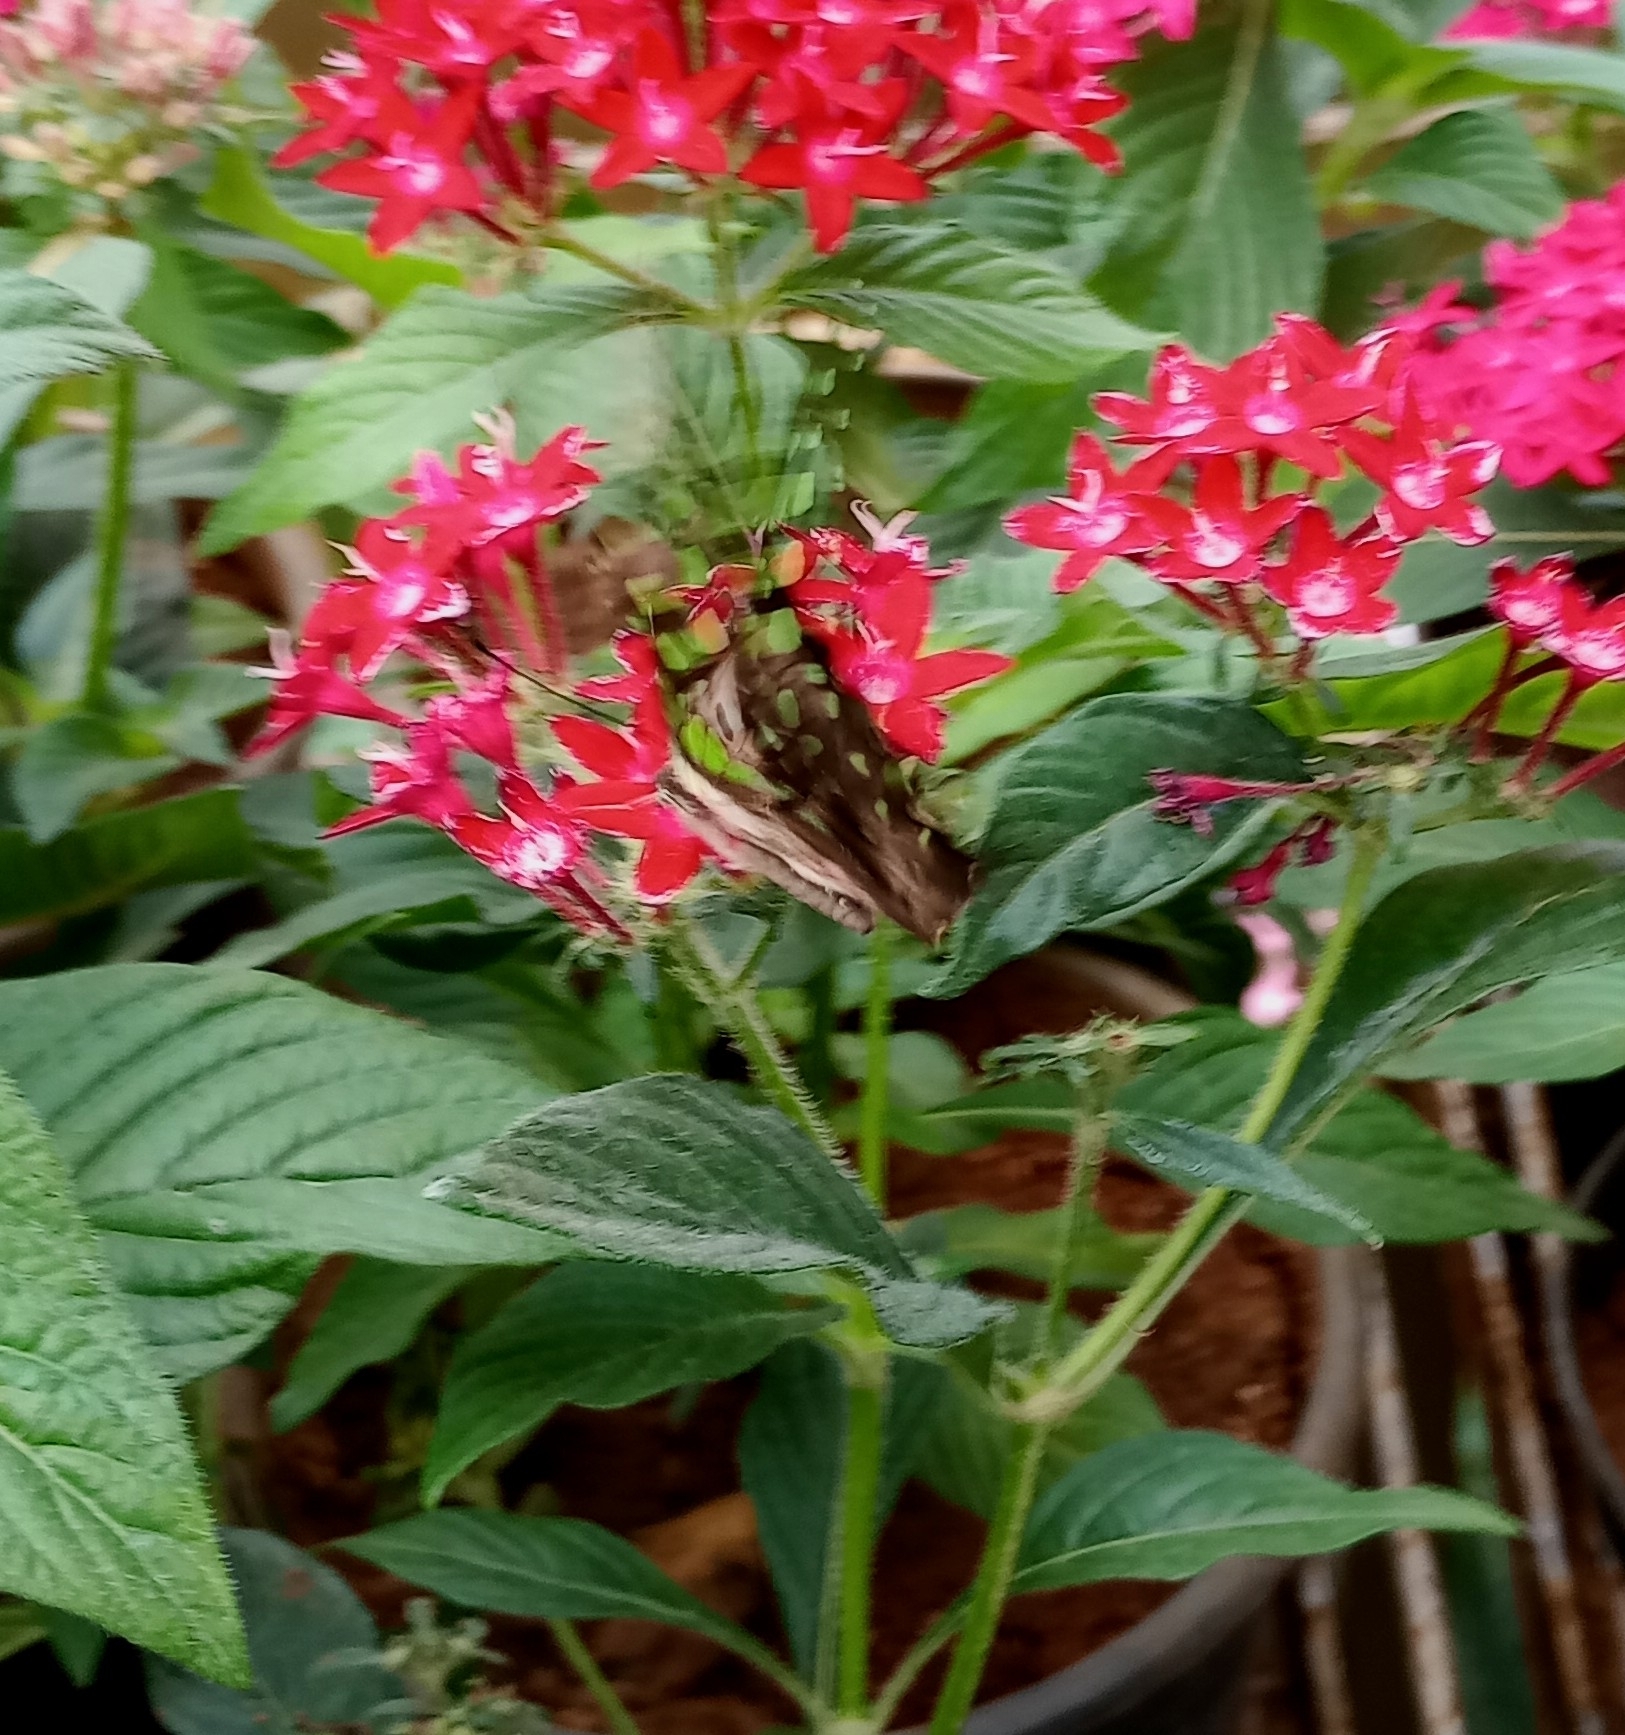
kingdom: Animalia
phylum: Arthropoda
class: Insecta
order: Lepidoptera
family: Papilionidae
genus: Graphium
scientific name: Graphium agamemnon
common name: Tailed jay
